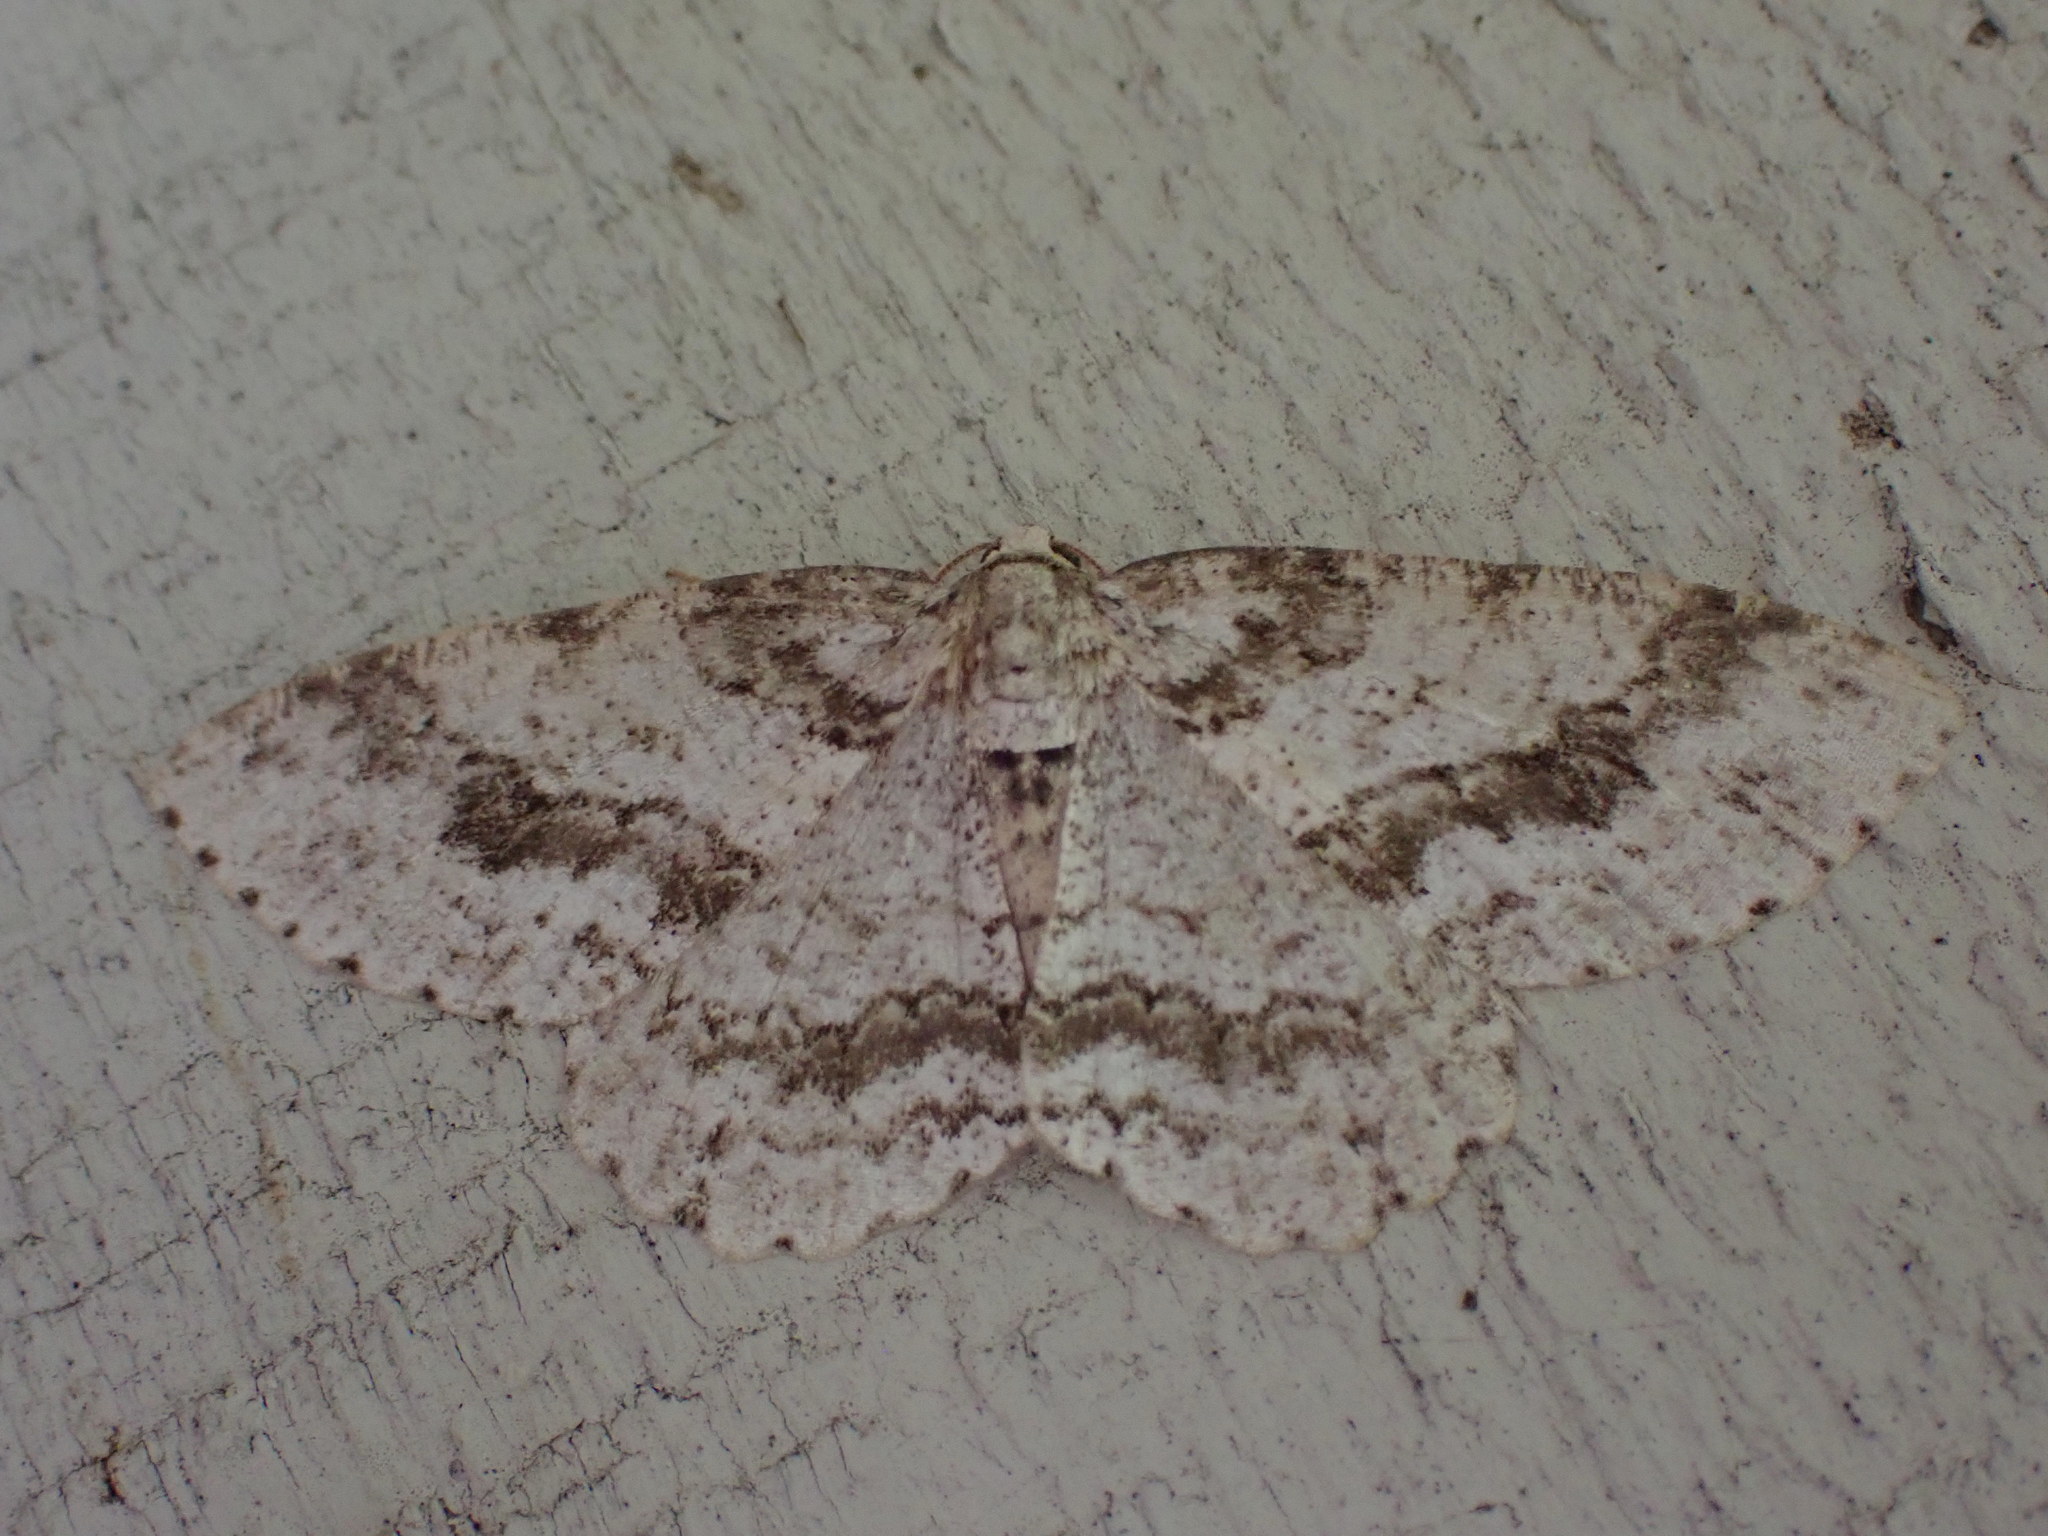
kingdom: Animalia
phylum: Arthropoda
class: Insecta
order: Lepidoptera
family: Geometridae
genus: Ectropis
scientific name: Ectropis crepuscularia
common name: Engrailed
